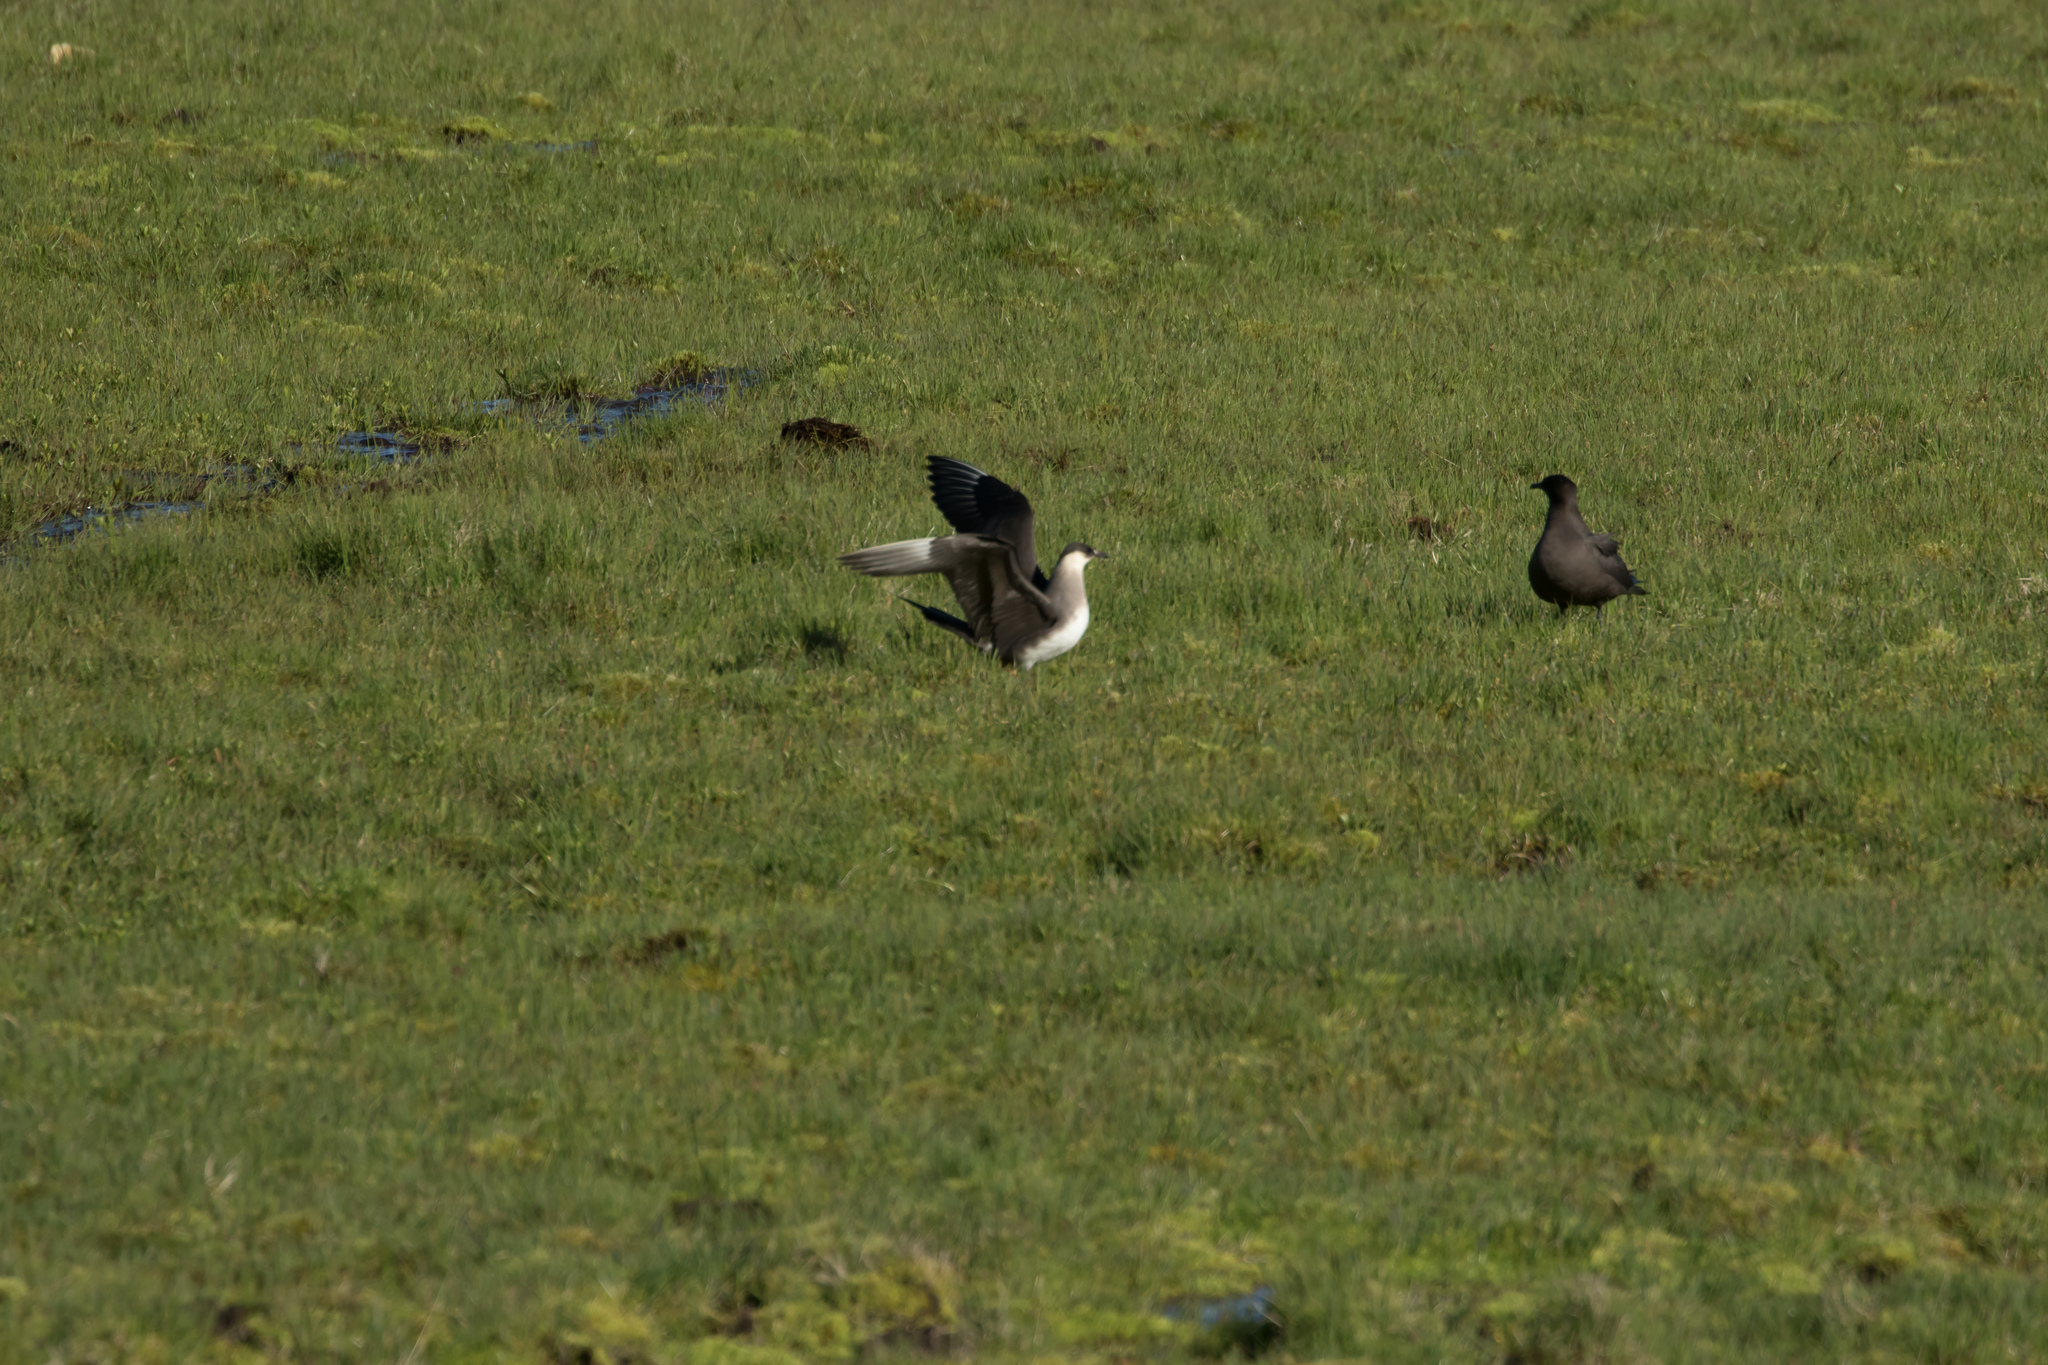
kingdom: Animalia
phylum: Chordata
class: Aves
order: Charadriiformes
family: Stercorariidae
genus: Stercorarius
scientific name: Stercorarius parasiticus
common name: Parasitic jaeger
